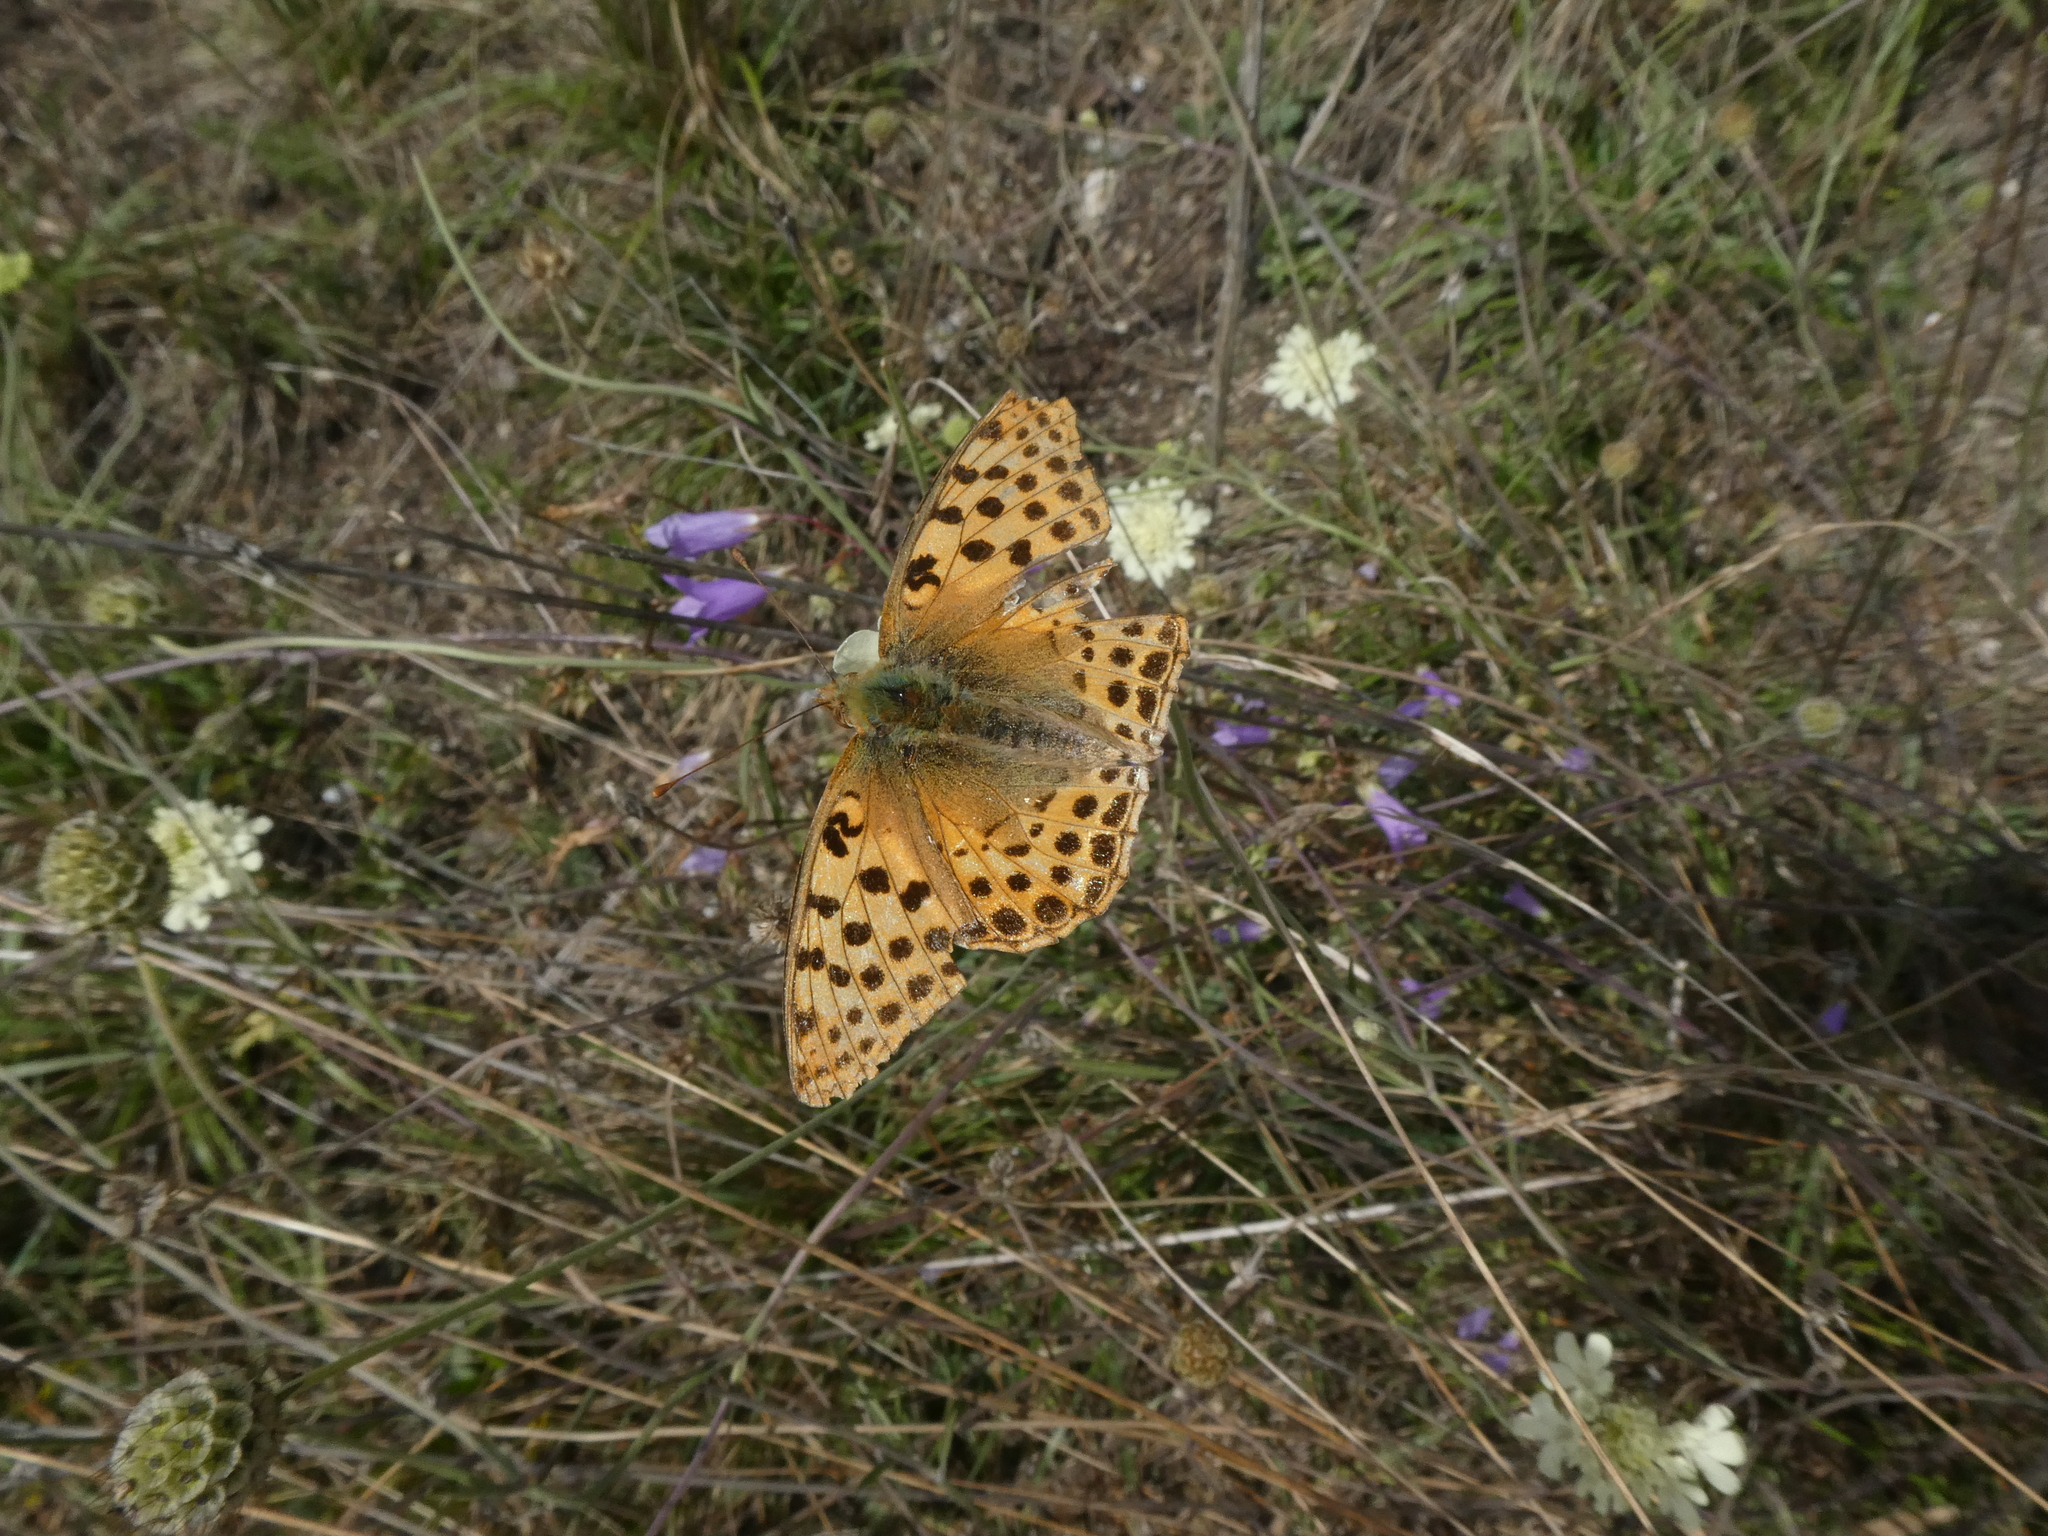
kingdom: Animalia
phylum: Arthropoda
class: Insecta
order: Lepidoptera
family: Nymphalidae
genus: Issoria
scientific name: Issoria lathonia
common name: Queen of spain fritillary
